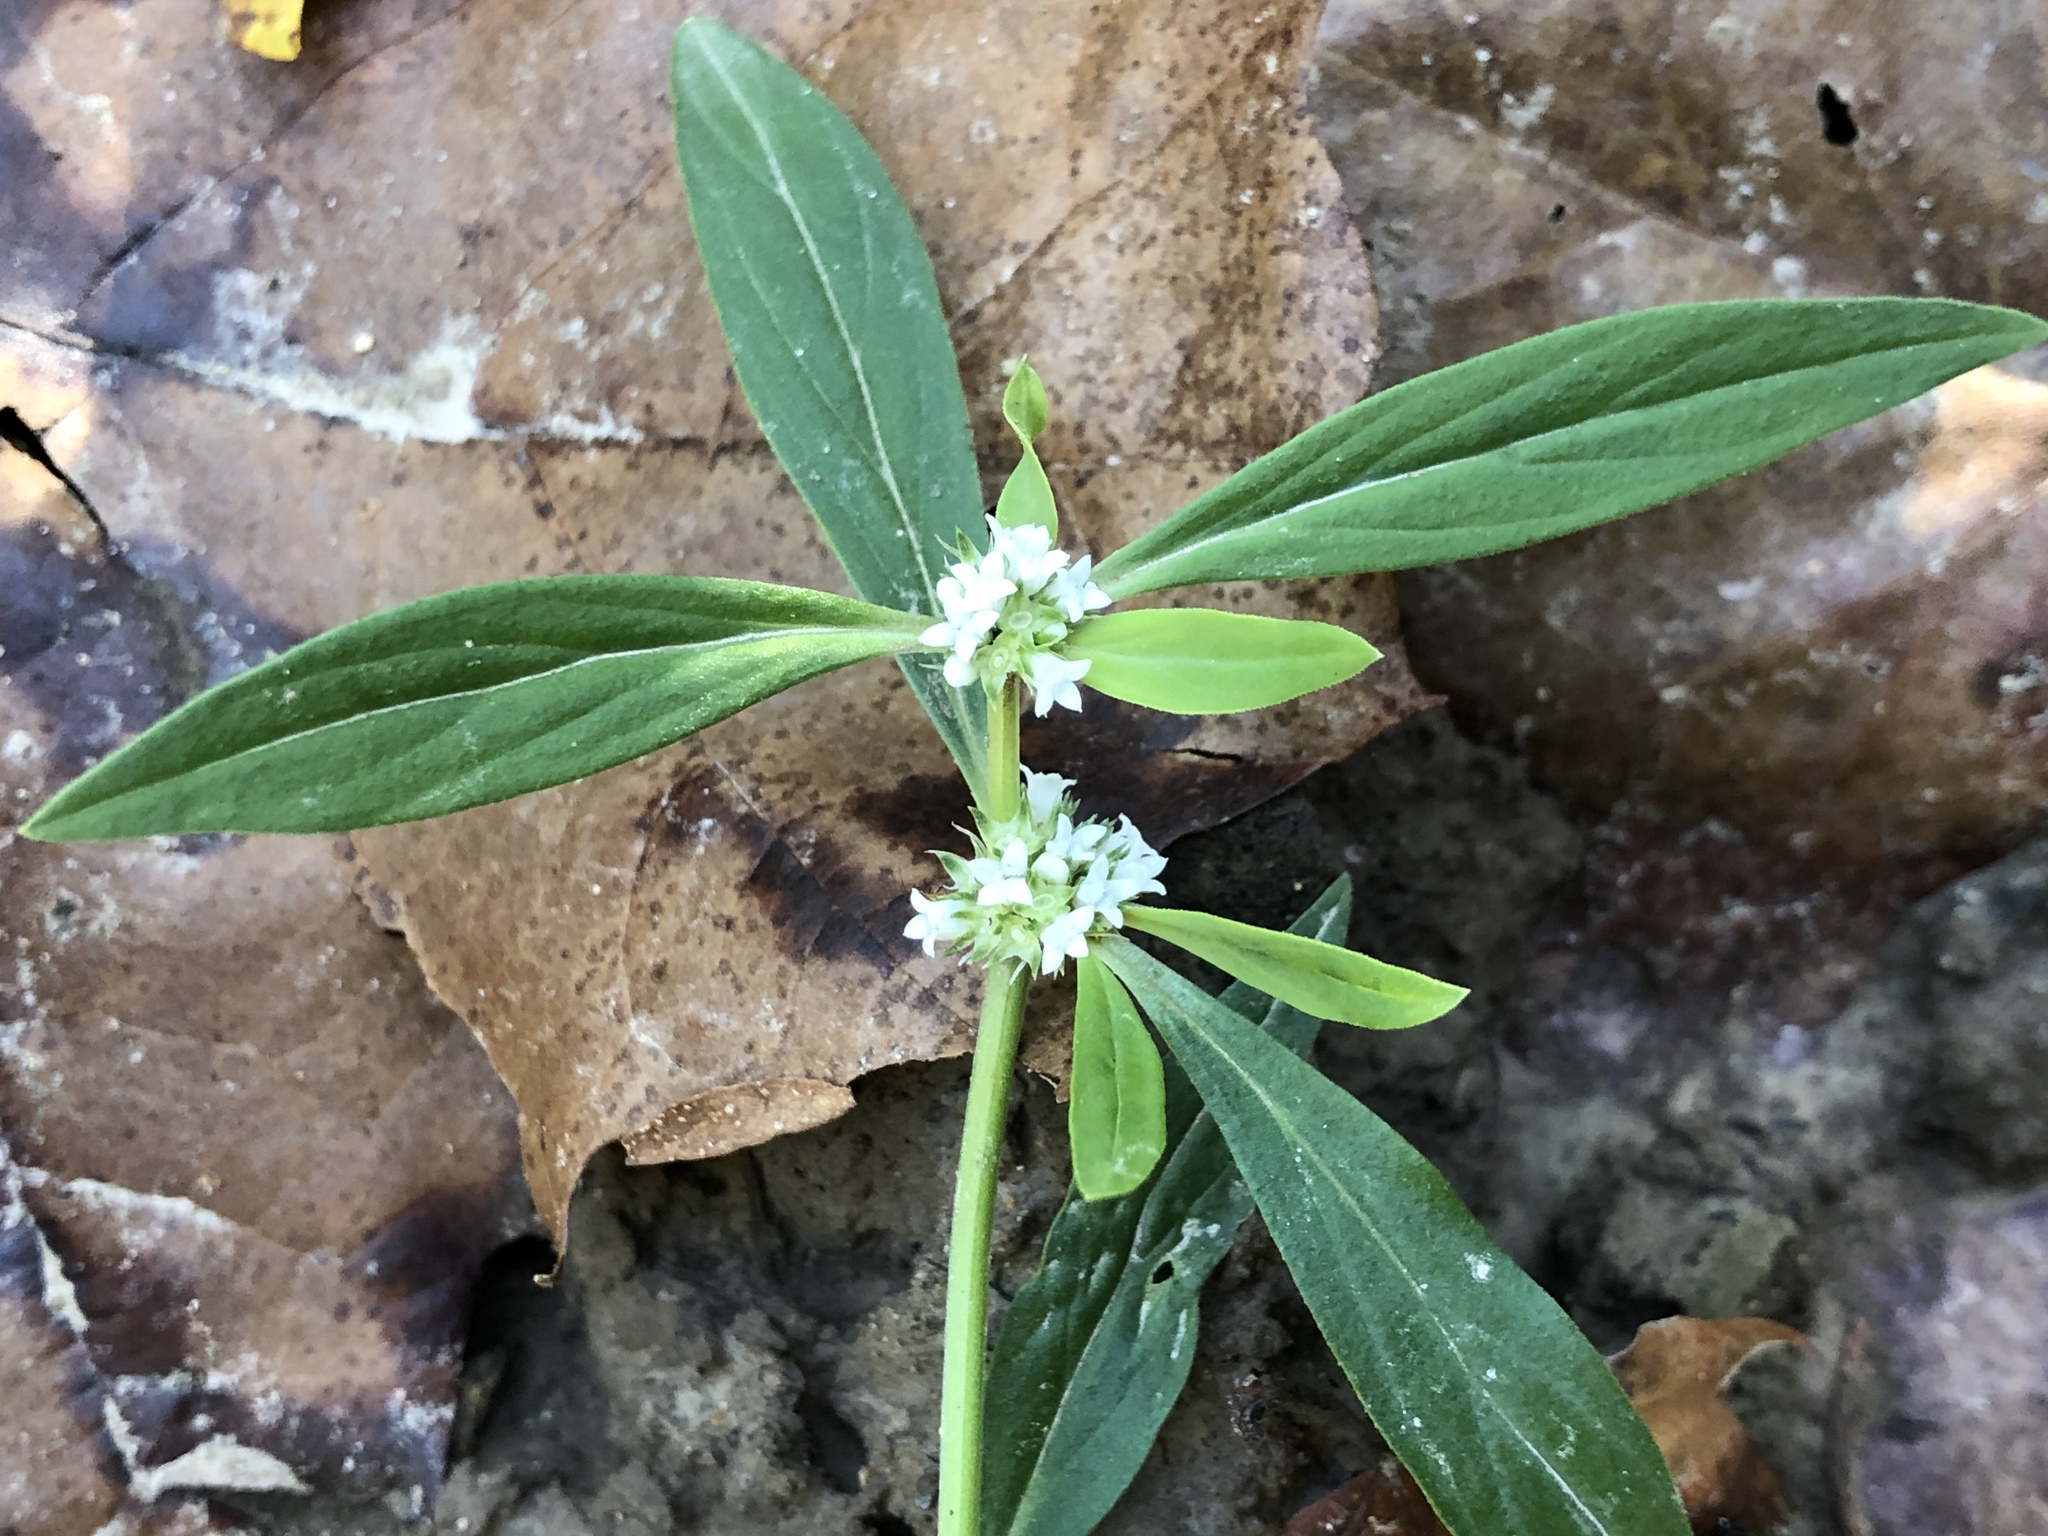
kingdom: Plantae
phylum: Tracheophyta
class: Magnoliopsida
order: Gentianales
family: Rubiaceae
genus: Spermacoce
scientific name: Spermacoce glabra
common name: Smooth buttonweed
